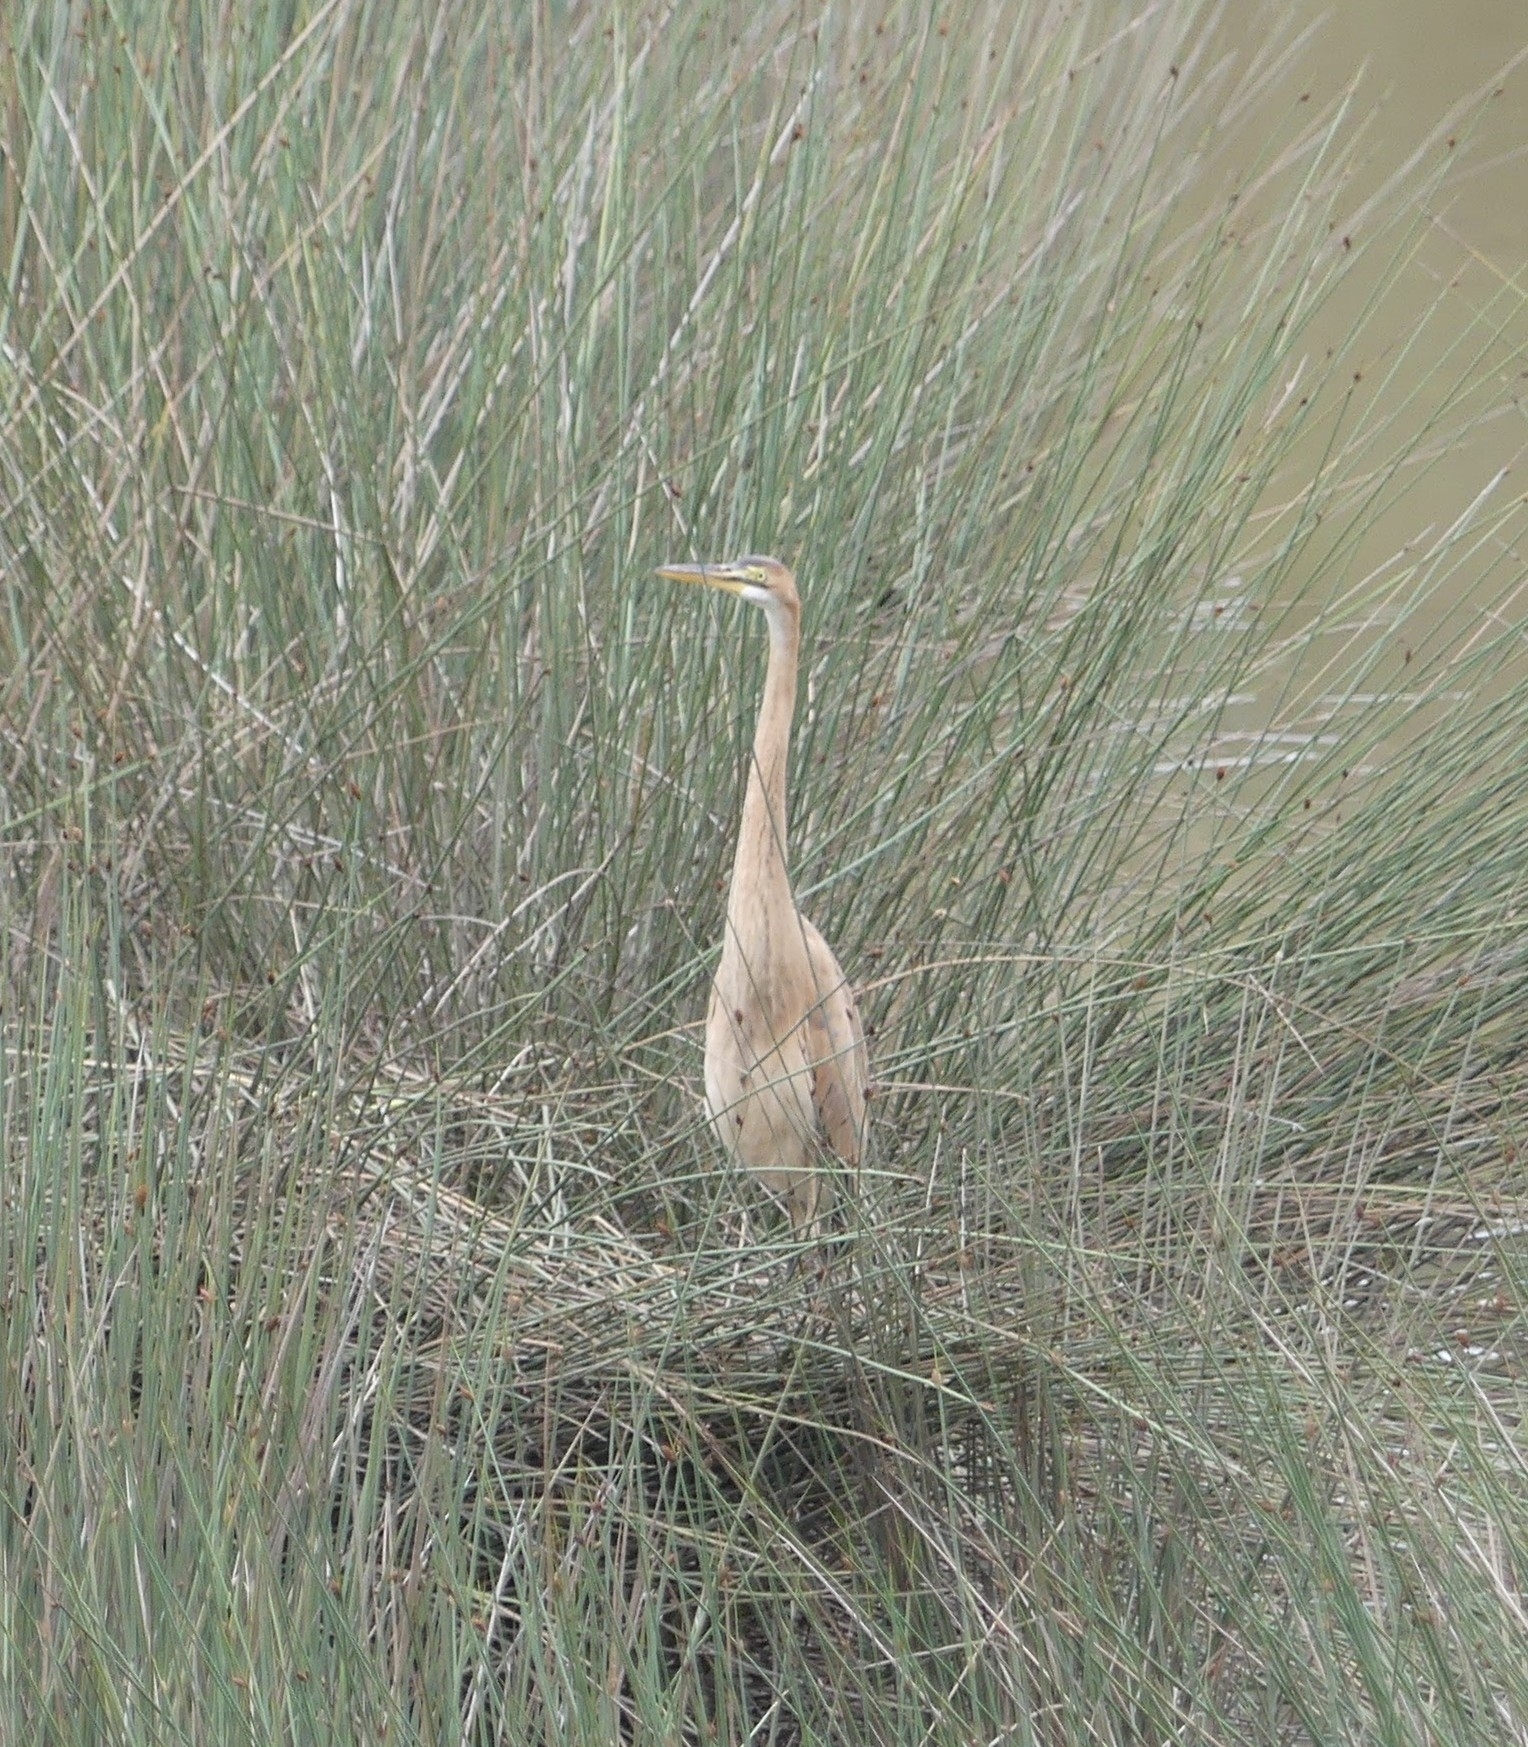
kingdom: Animalia
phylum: Chordata
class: Aves
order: Pelecaniformes
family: Ardeidae
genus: Ardea
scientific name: Ardea purpurea
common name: Purple heron
